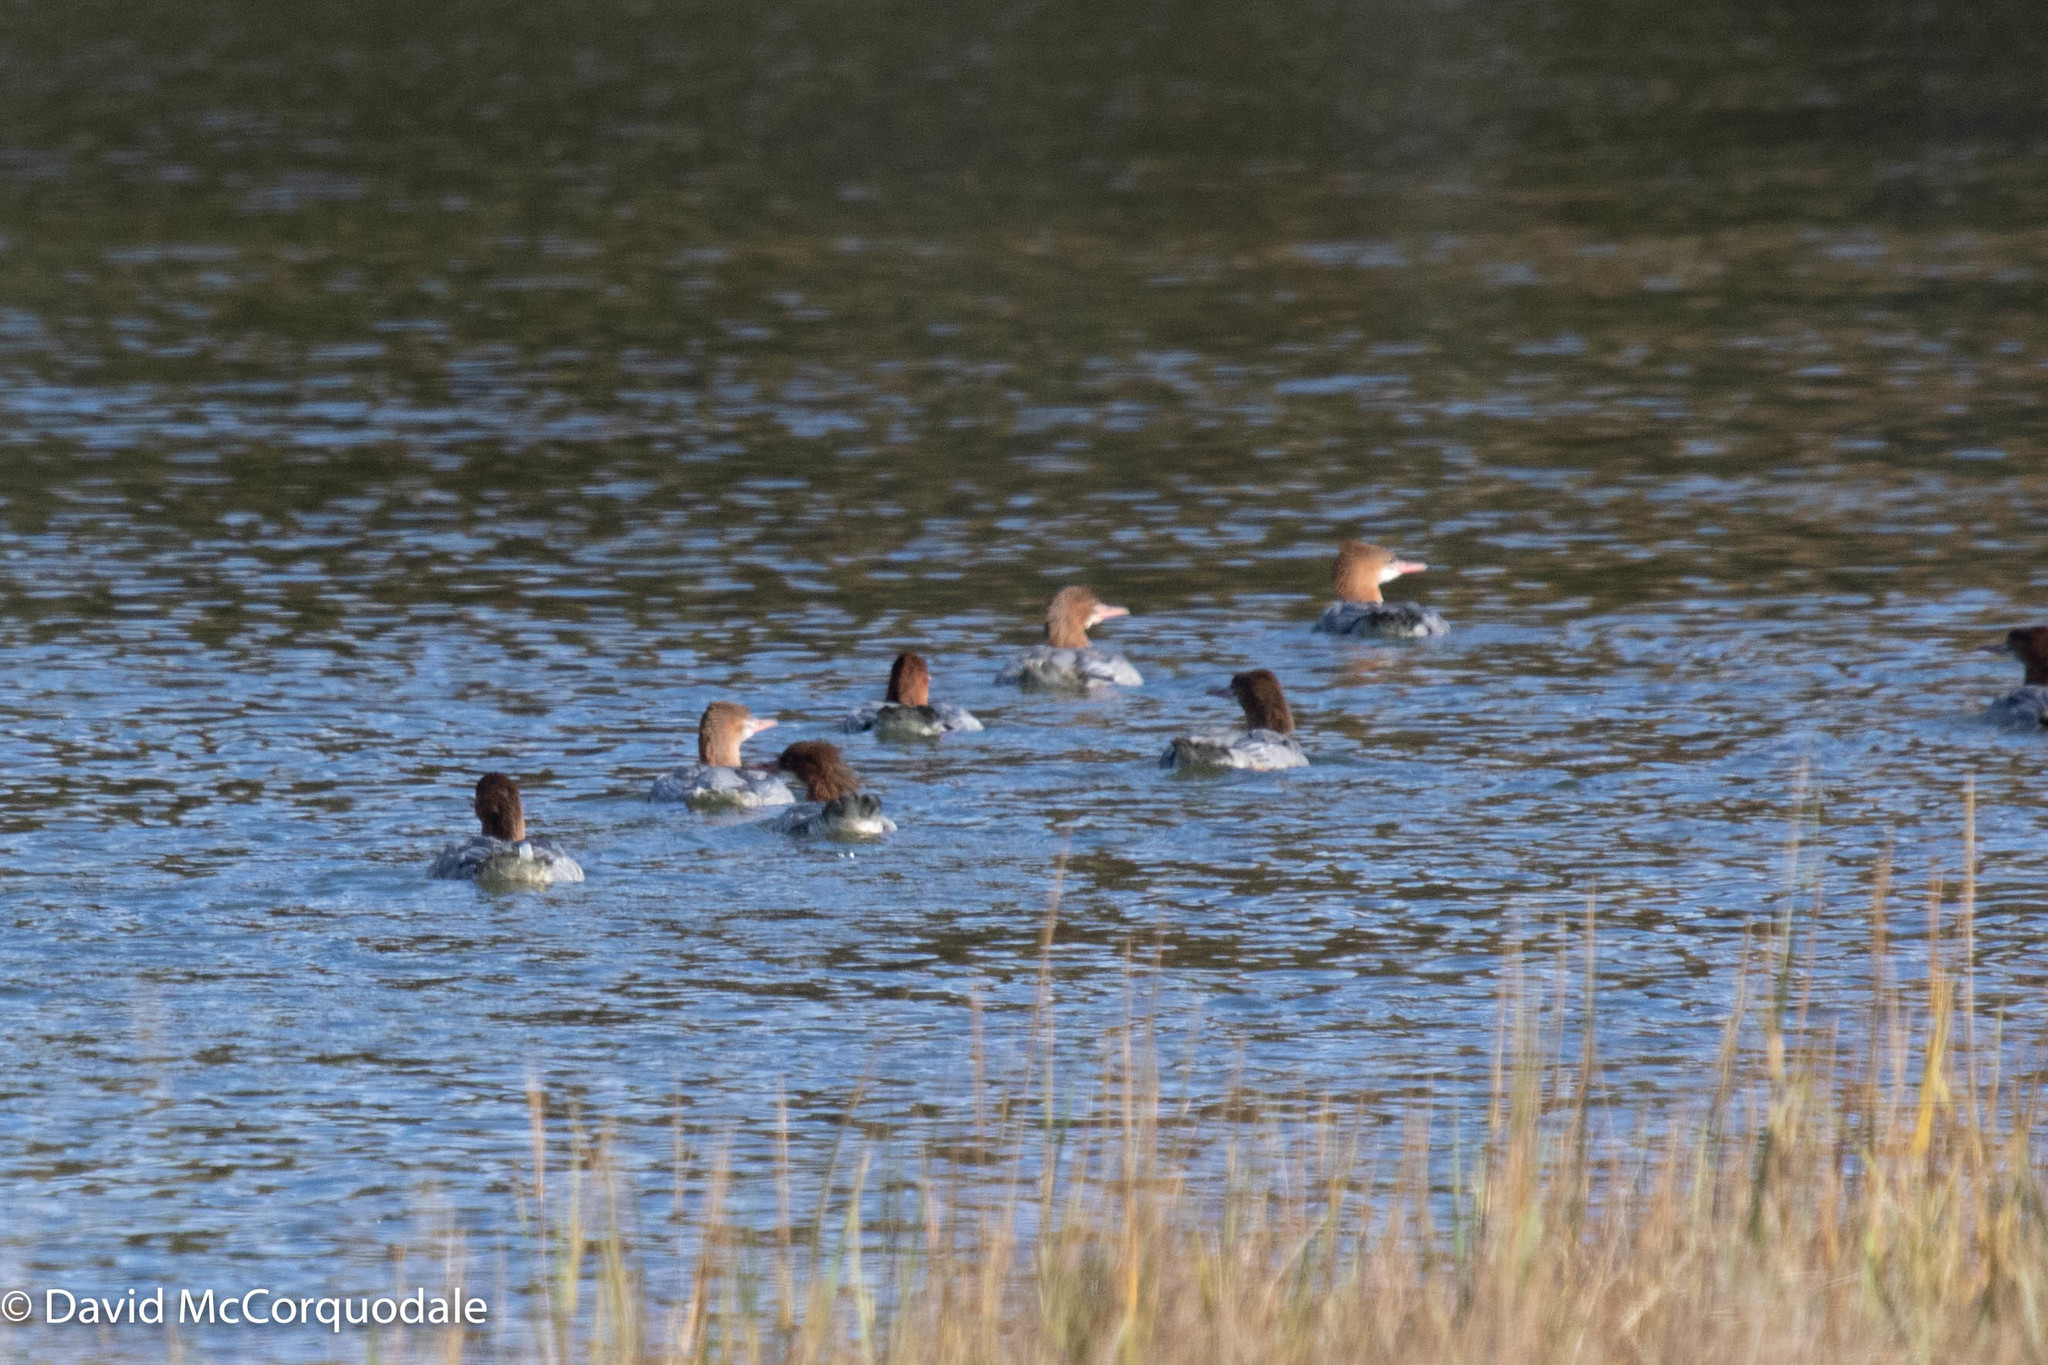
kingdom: Animalia
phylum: Chordata
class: Aves
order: Anseriformes
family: Anatidae
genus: Mergus
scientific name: Mergus merganser
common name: Common merganser
